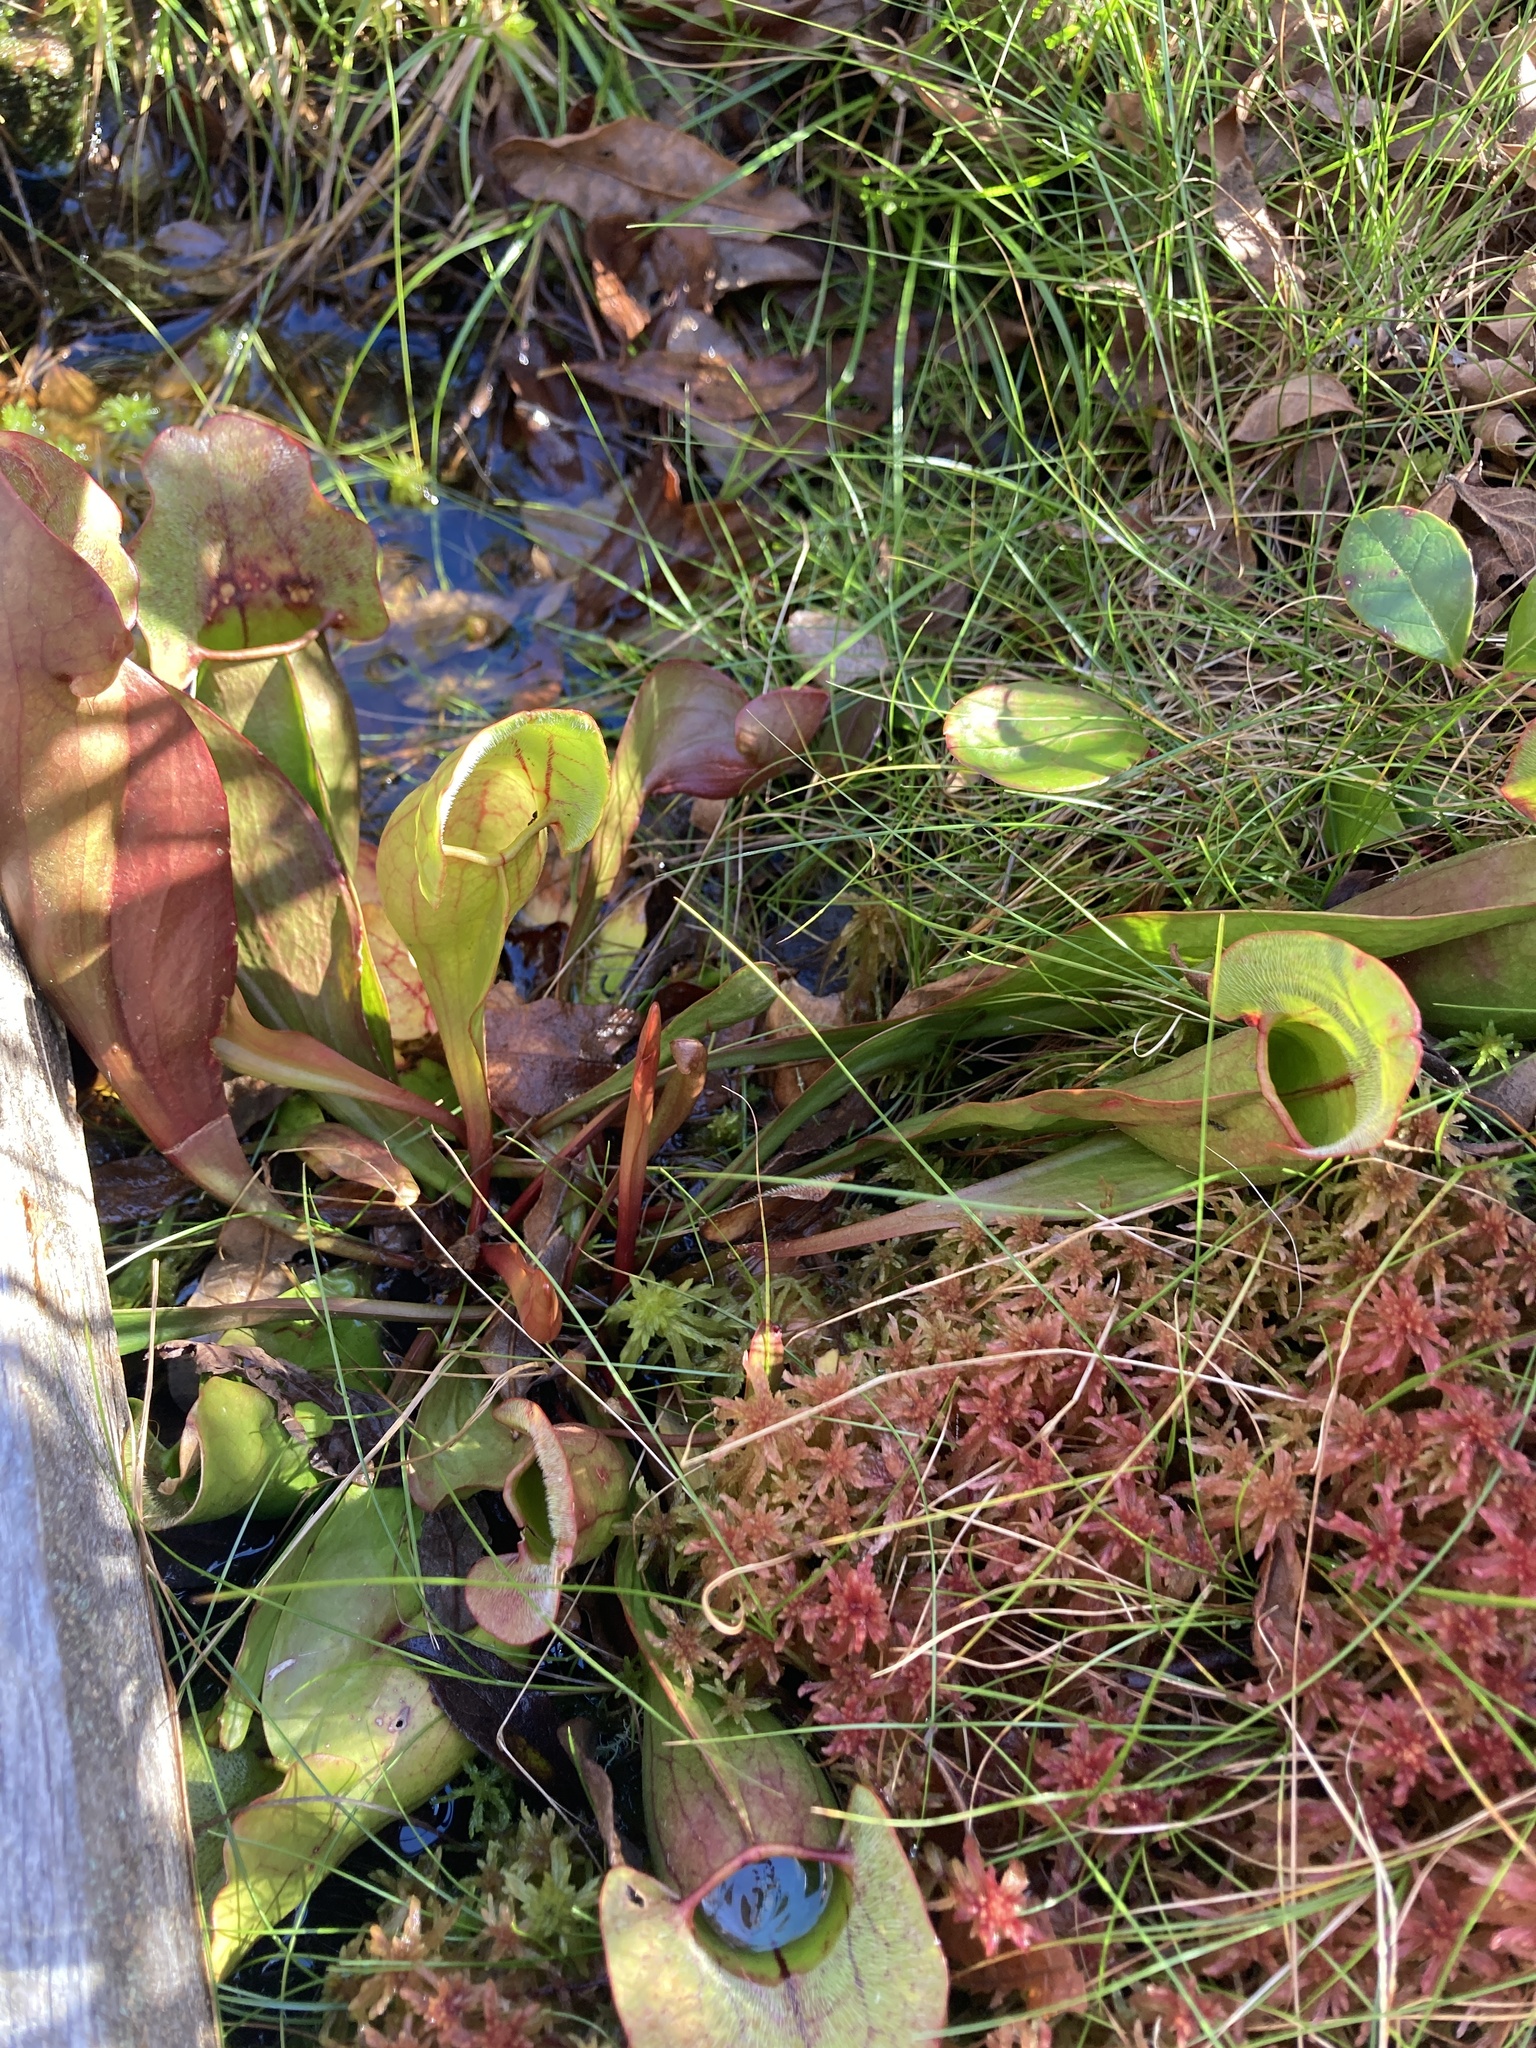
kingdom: Plantae
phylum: Tracheophyta
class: Magnoliopsida
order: Ericales
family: Sarraceniaceae
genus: Sarracenia
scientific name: Sarracenia purpurea
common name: Pitcherplant
